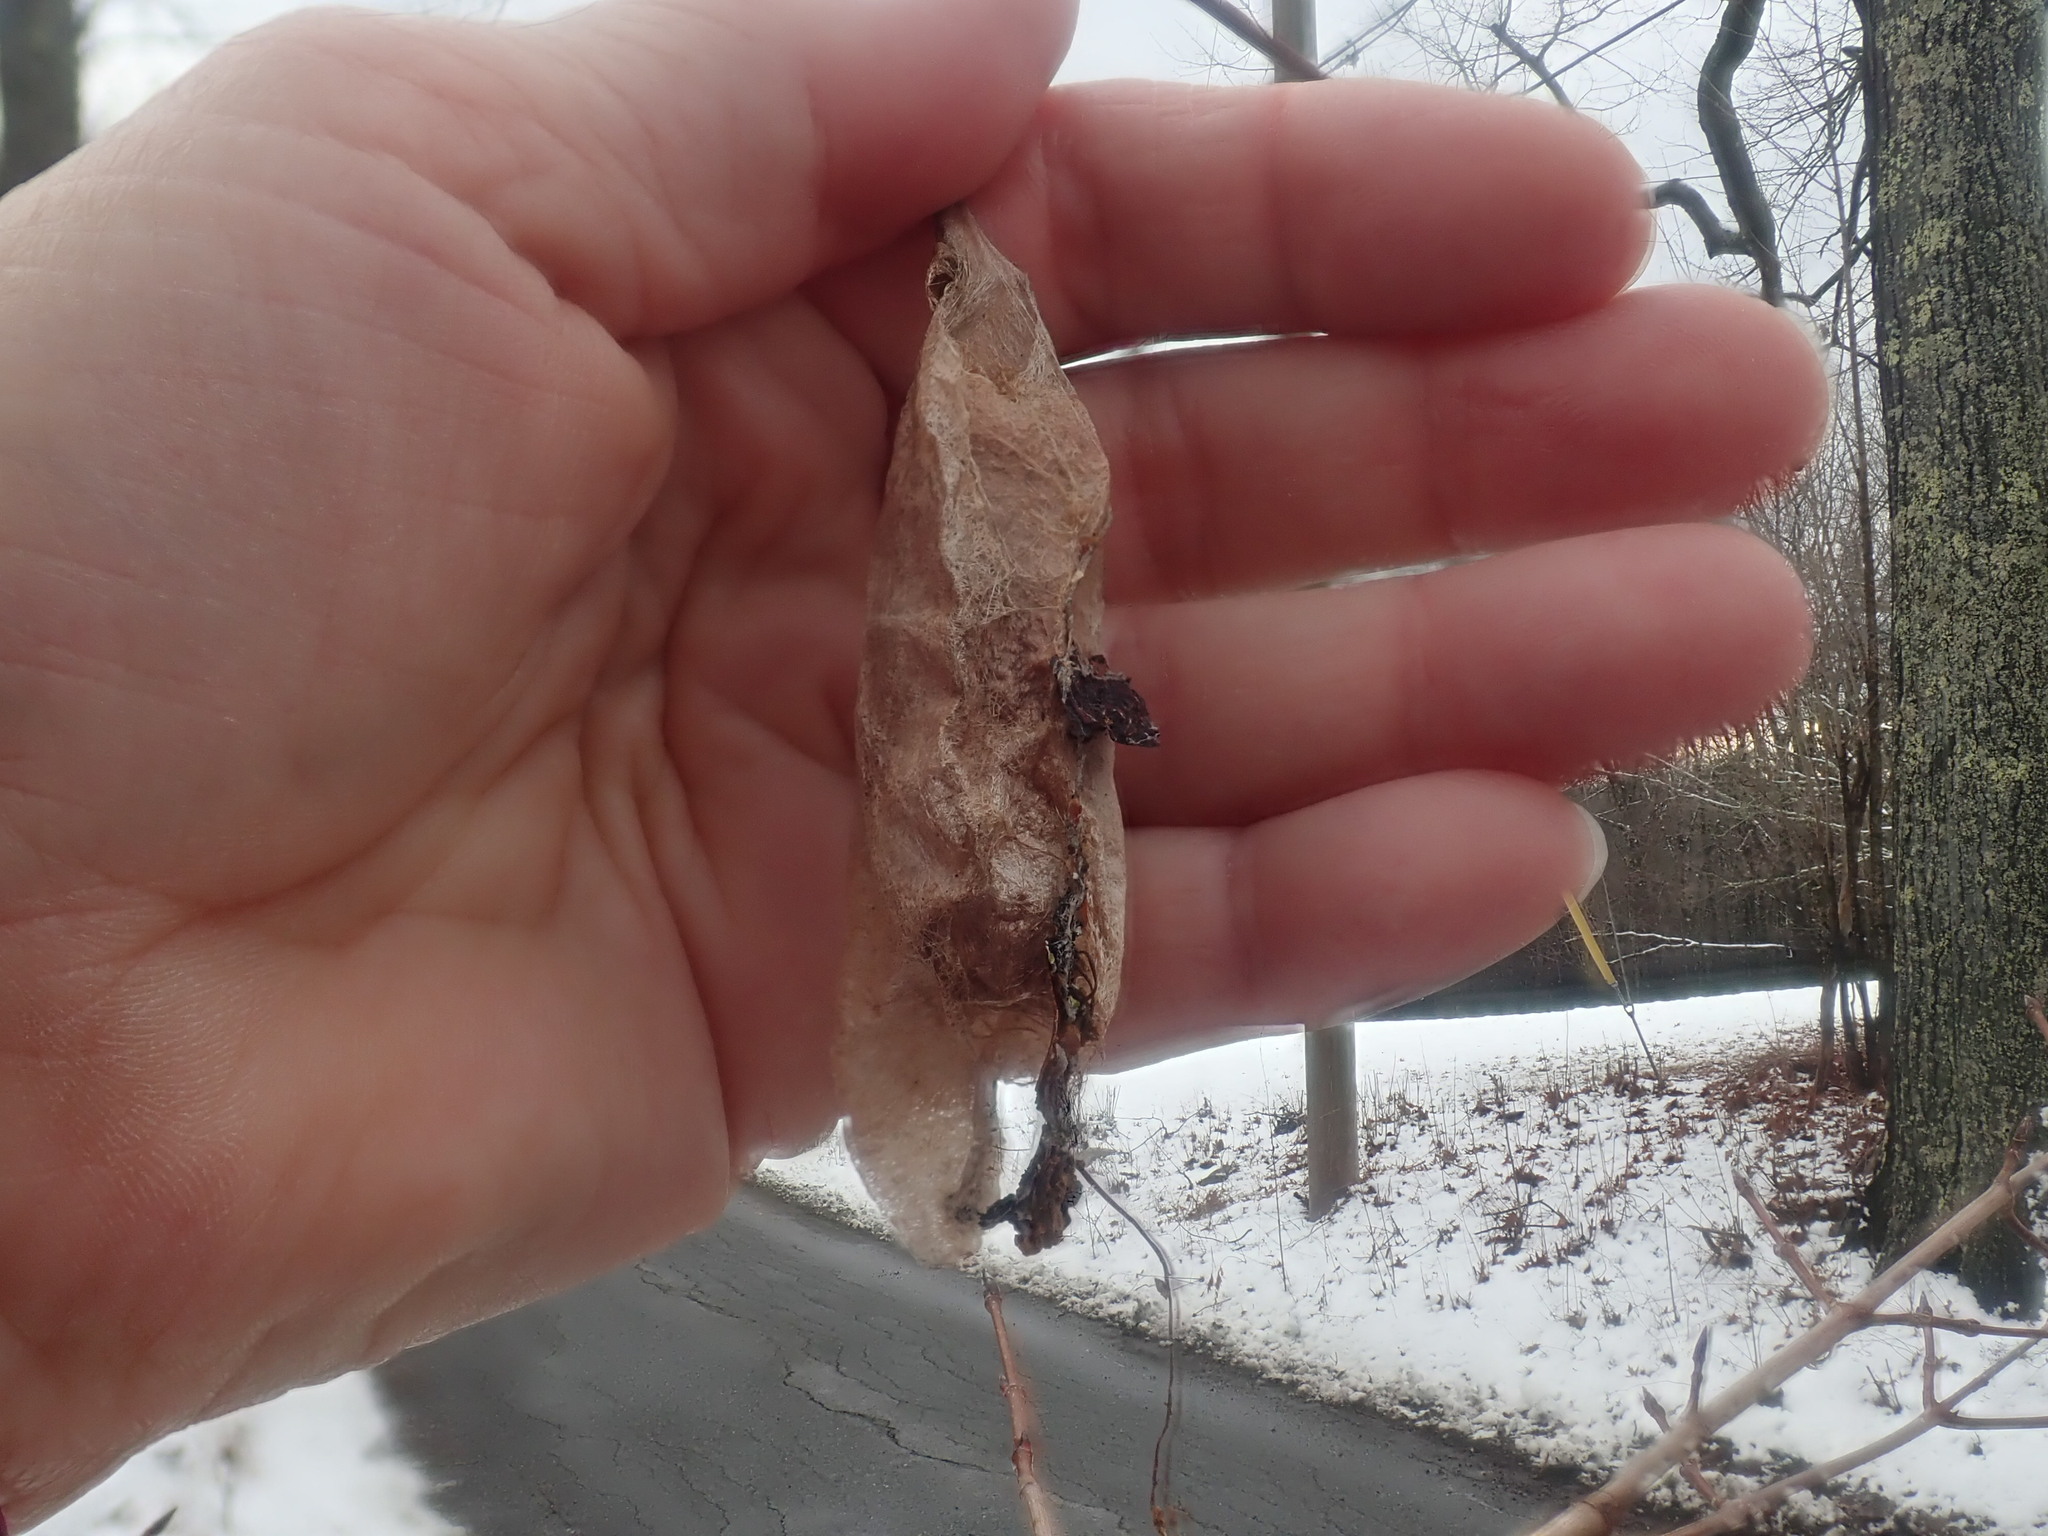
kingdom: Animalia
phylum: Arthropoda
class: Insecta
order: Lepidoptera
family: Saturniidae
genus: Callosamia
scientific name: Callosamia promethea
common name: Promethea silkmoth
